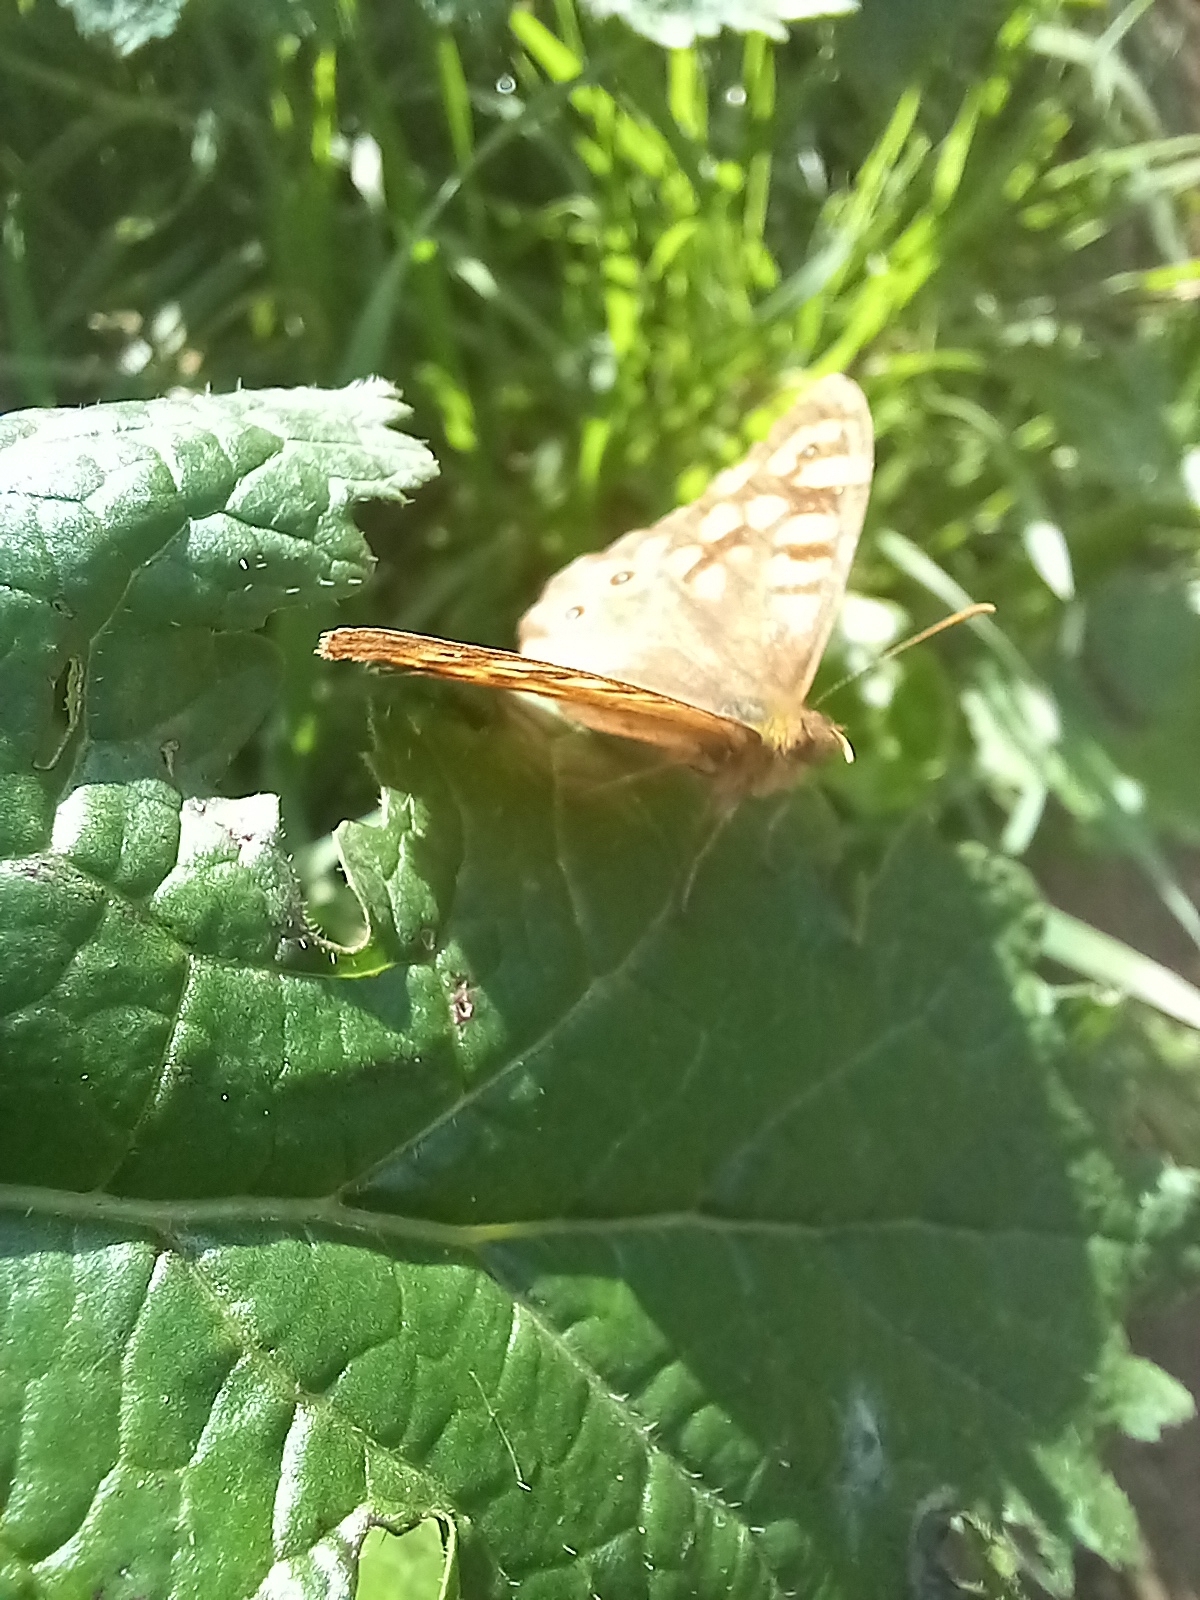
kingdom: Animalia
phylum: Arthropoda
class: Insecta
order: Lepidoptera
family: Nymphalidae
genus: Pararge
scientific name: Pararge aegeria
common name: Speckled wood
